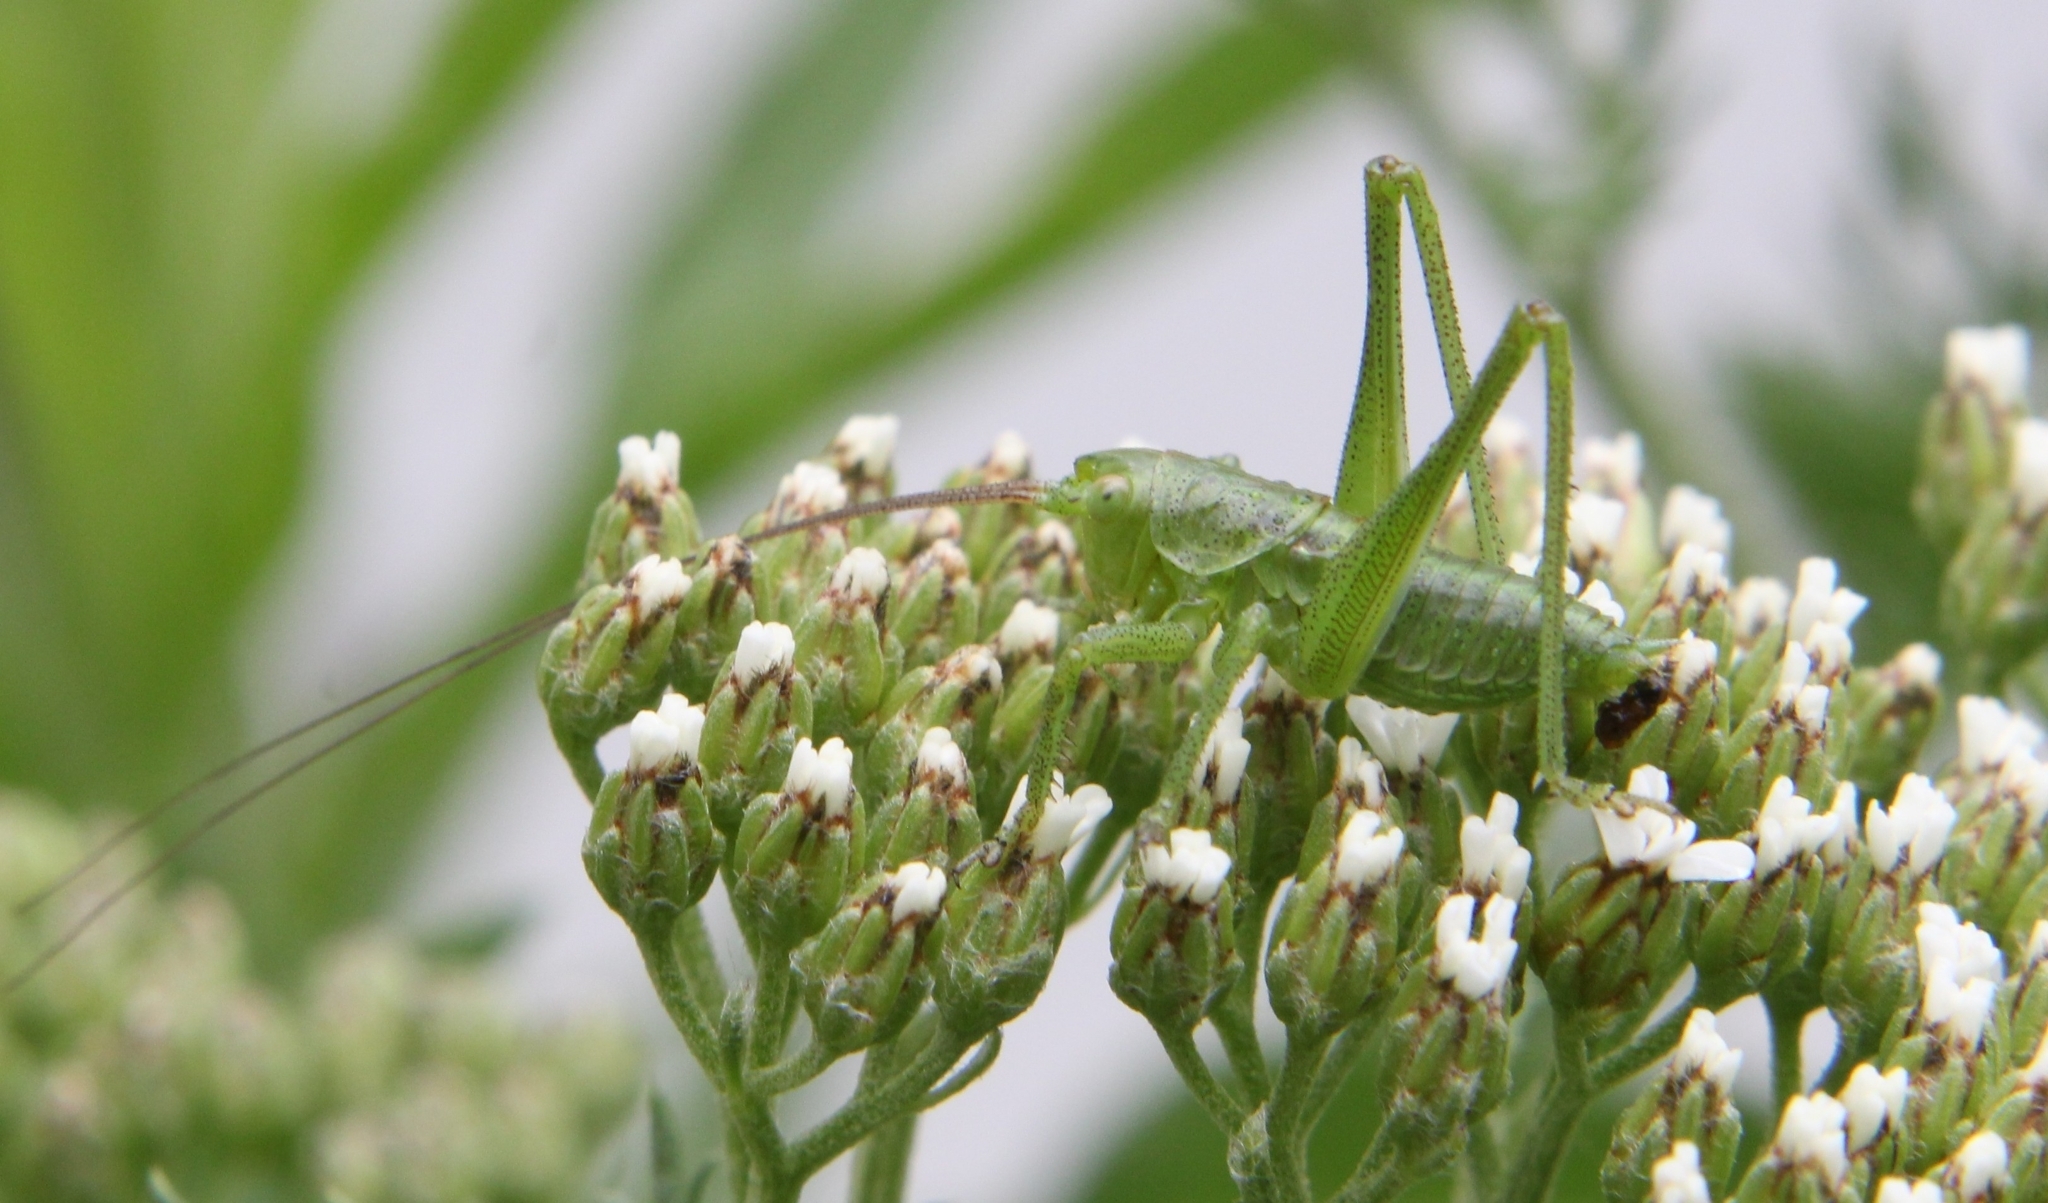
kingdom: Animalia
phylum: Arthropoda
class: Insecta
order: Orthoptera
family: Tettigoniidae
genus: Tettigonia
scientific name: Tettigonia viridissima
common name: Great green bush-cricket
